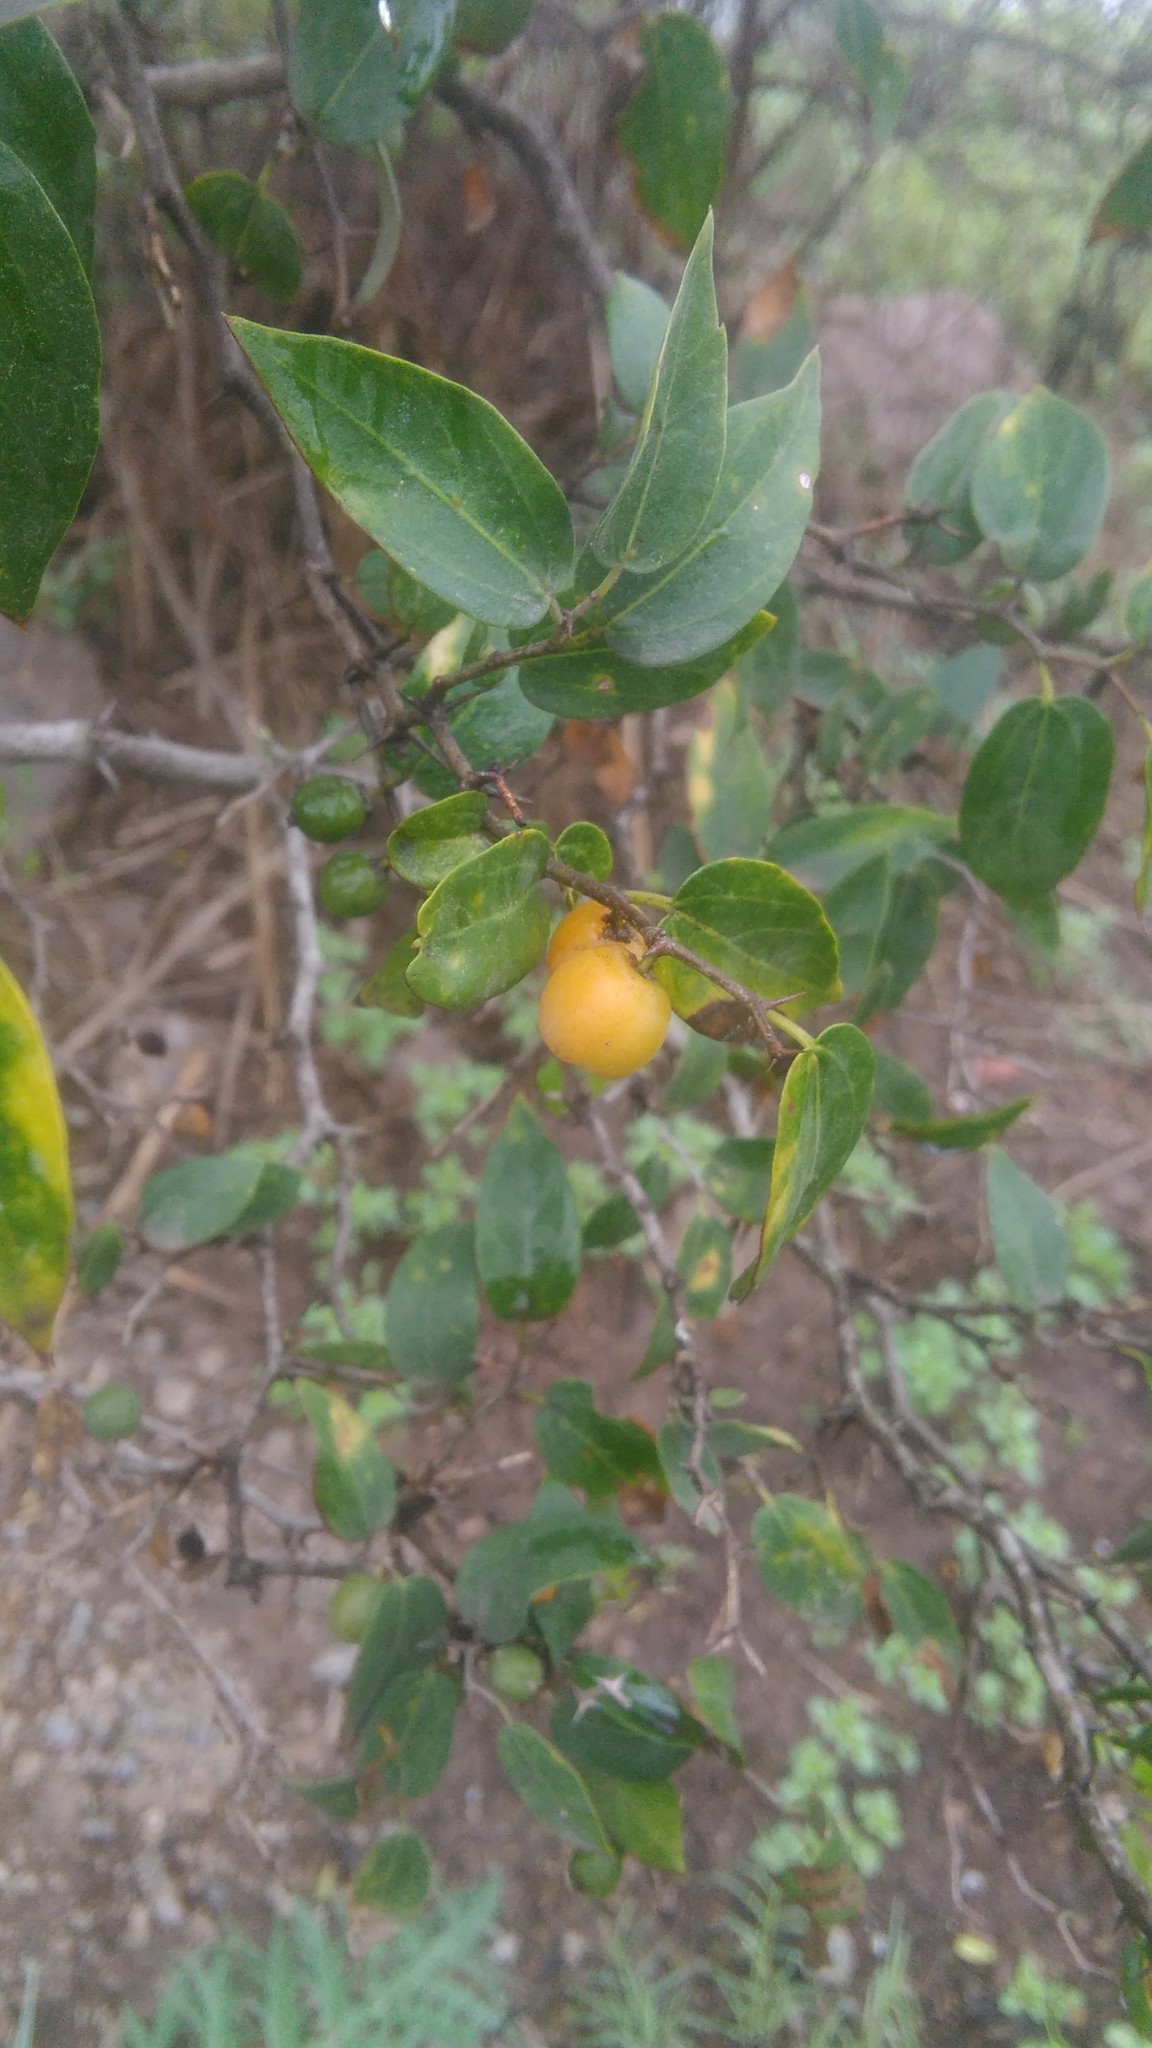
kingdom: Plantae
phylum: Tracheophyta
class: Magnoliopsida
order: Rosales
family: Cannabaceae
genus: Celtis
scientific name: Celtis tala
